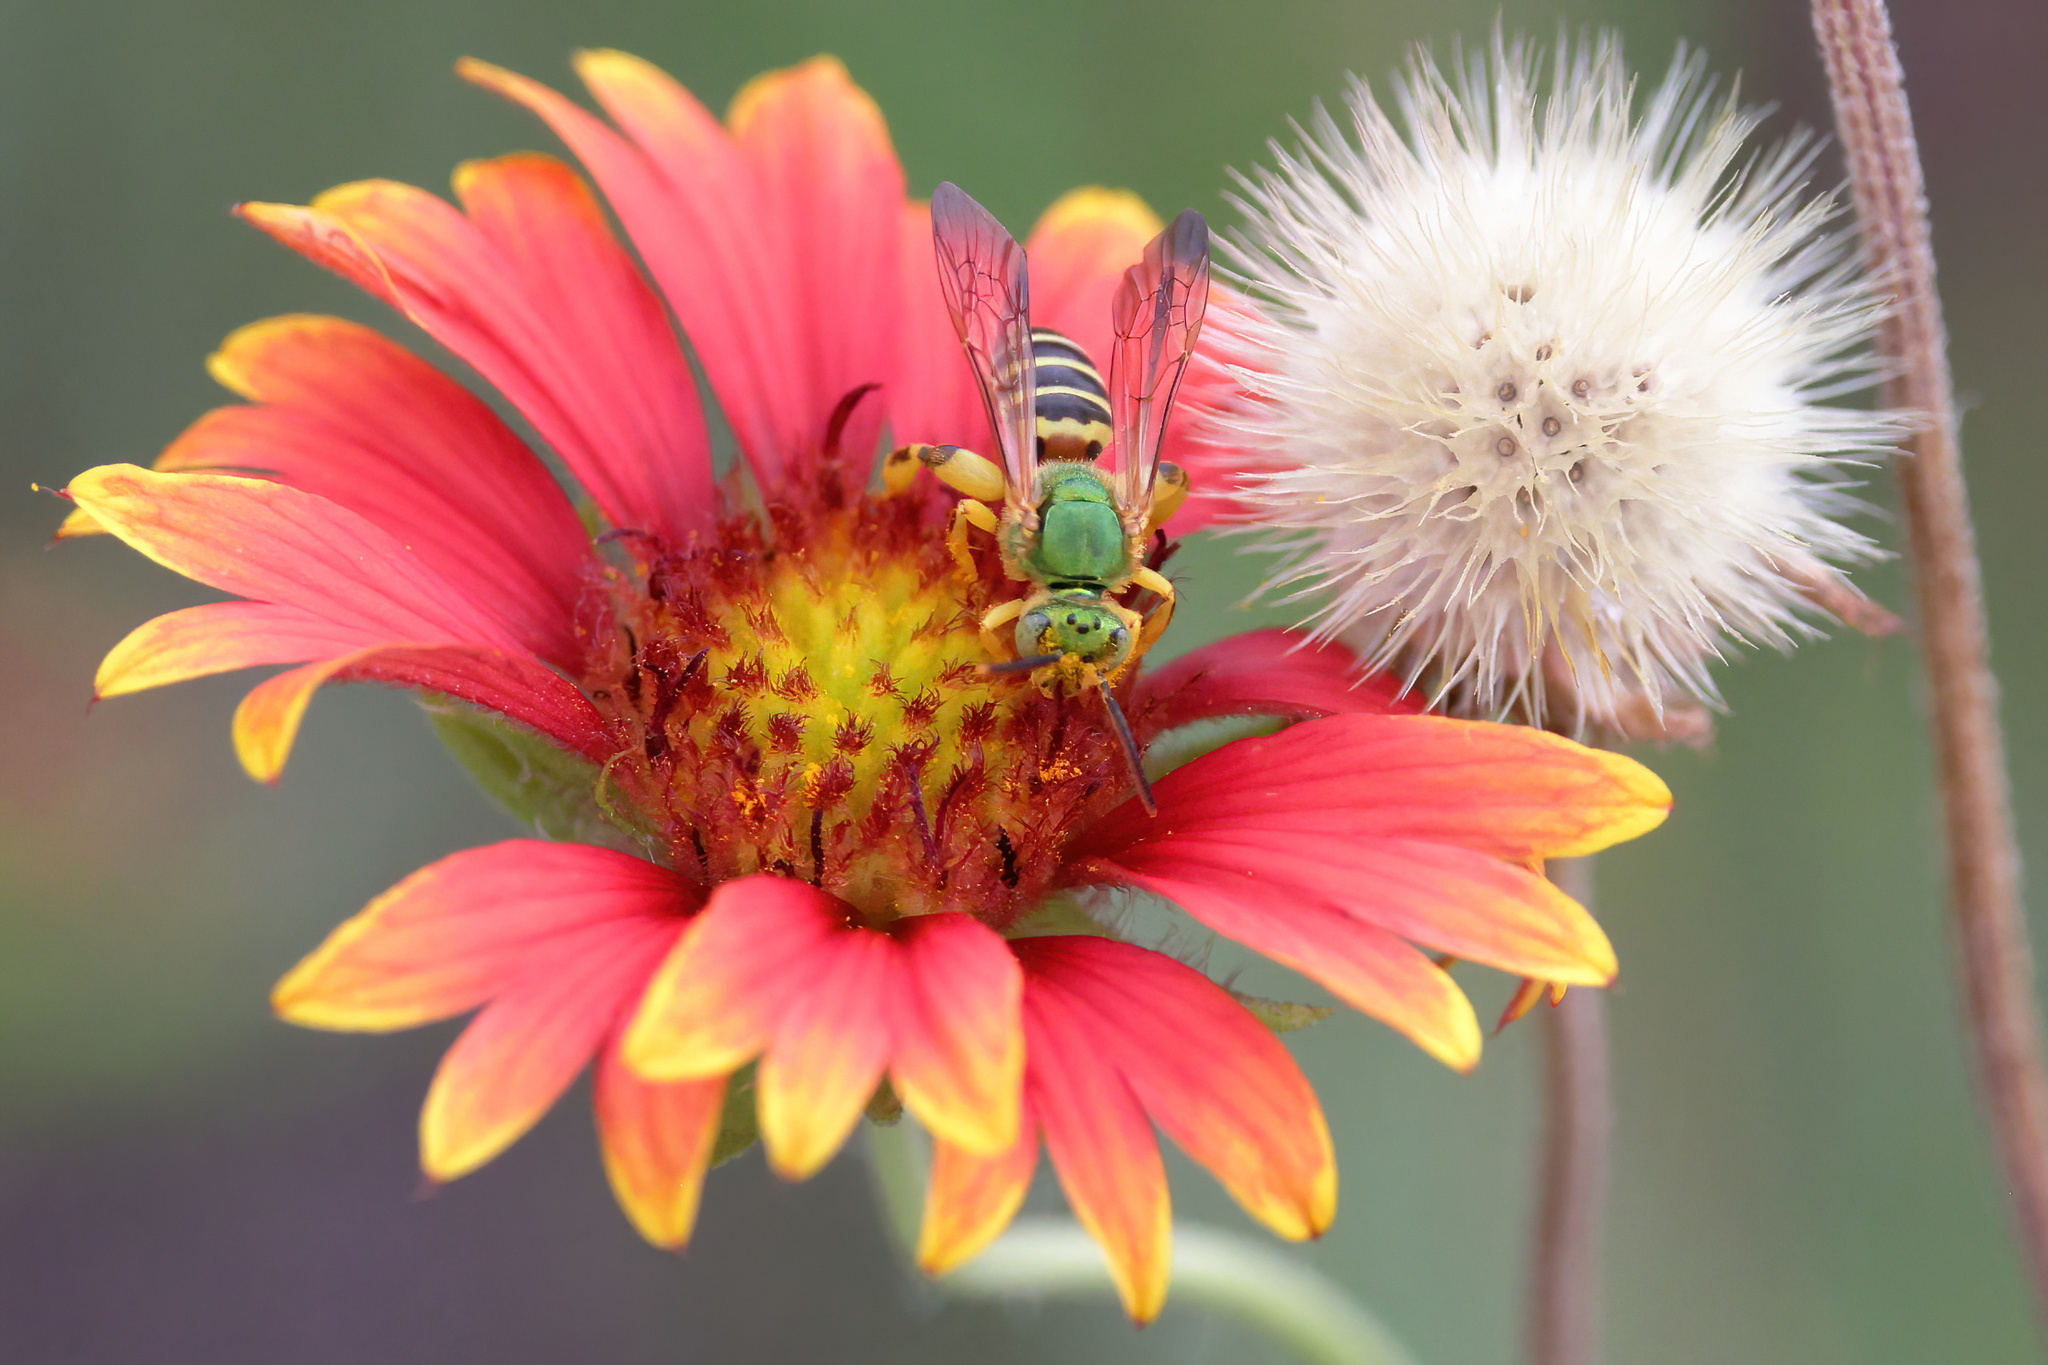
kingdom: Animalia
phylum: Arthropoda
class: Insecta
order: Hymenoptera
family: Halictidae
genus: Agapostemon
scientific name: Agapostemon splendens
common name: Brown-winged striped sweat bee
